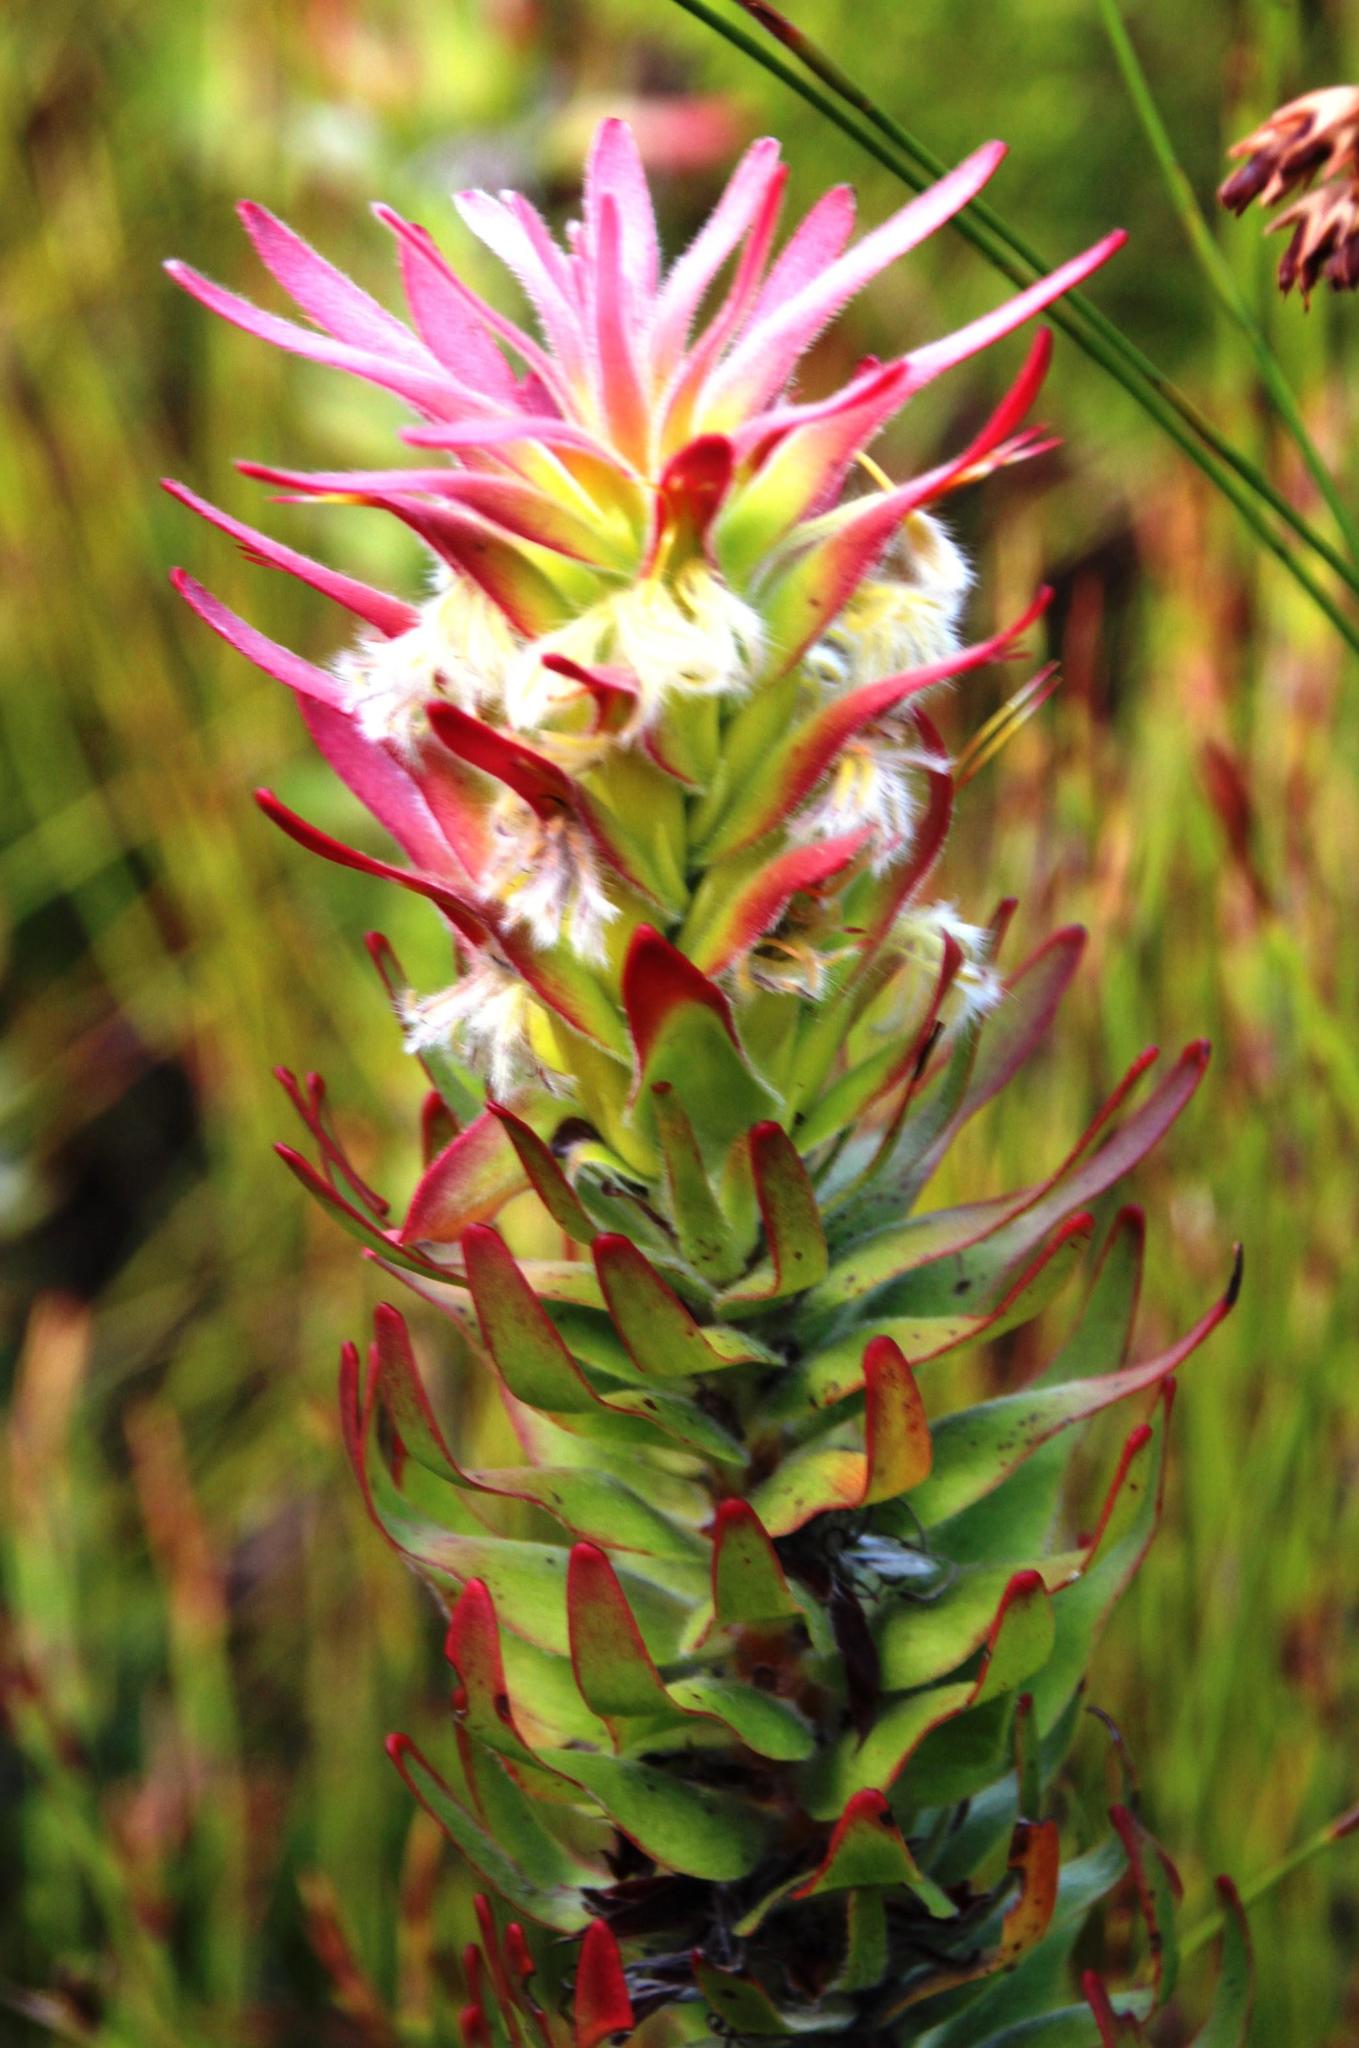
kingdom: Plantae
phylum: Tracheophyta
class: Magnoliopsida
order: Proteales
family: Proteaceae
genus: Mimetes
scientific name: Mimetes cucullatus
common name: Common pagoda
